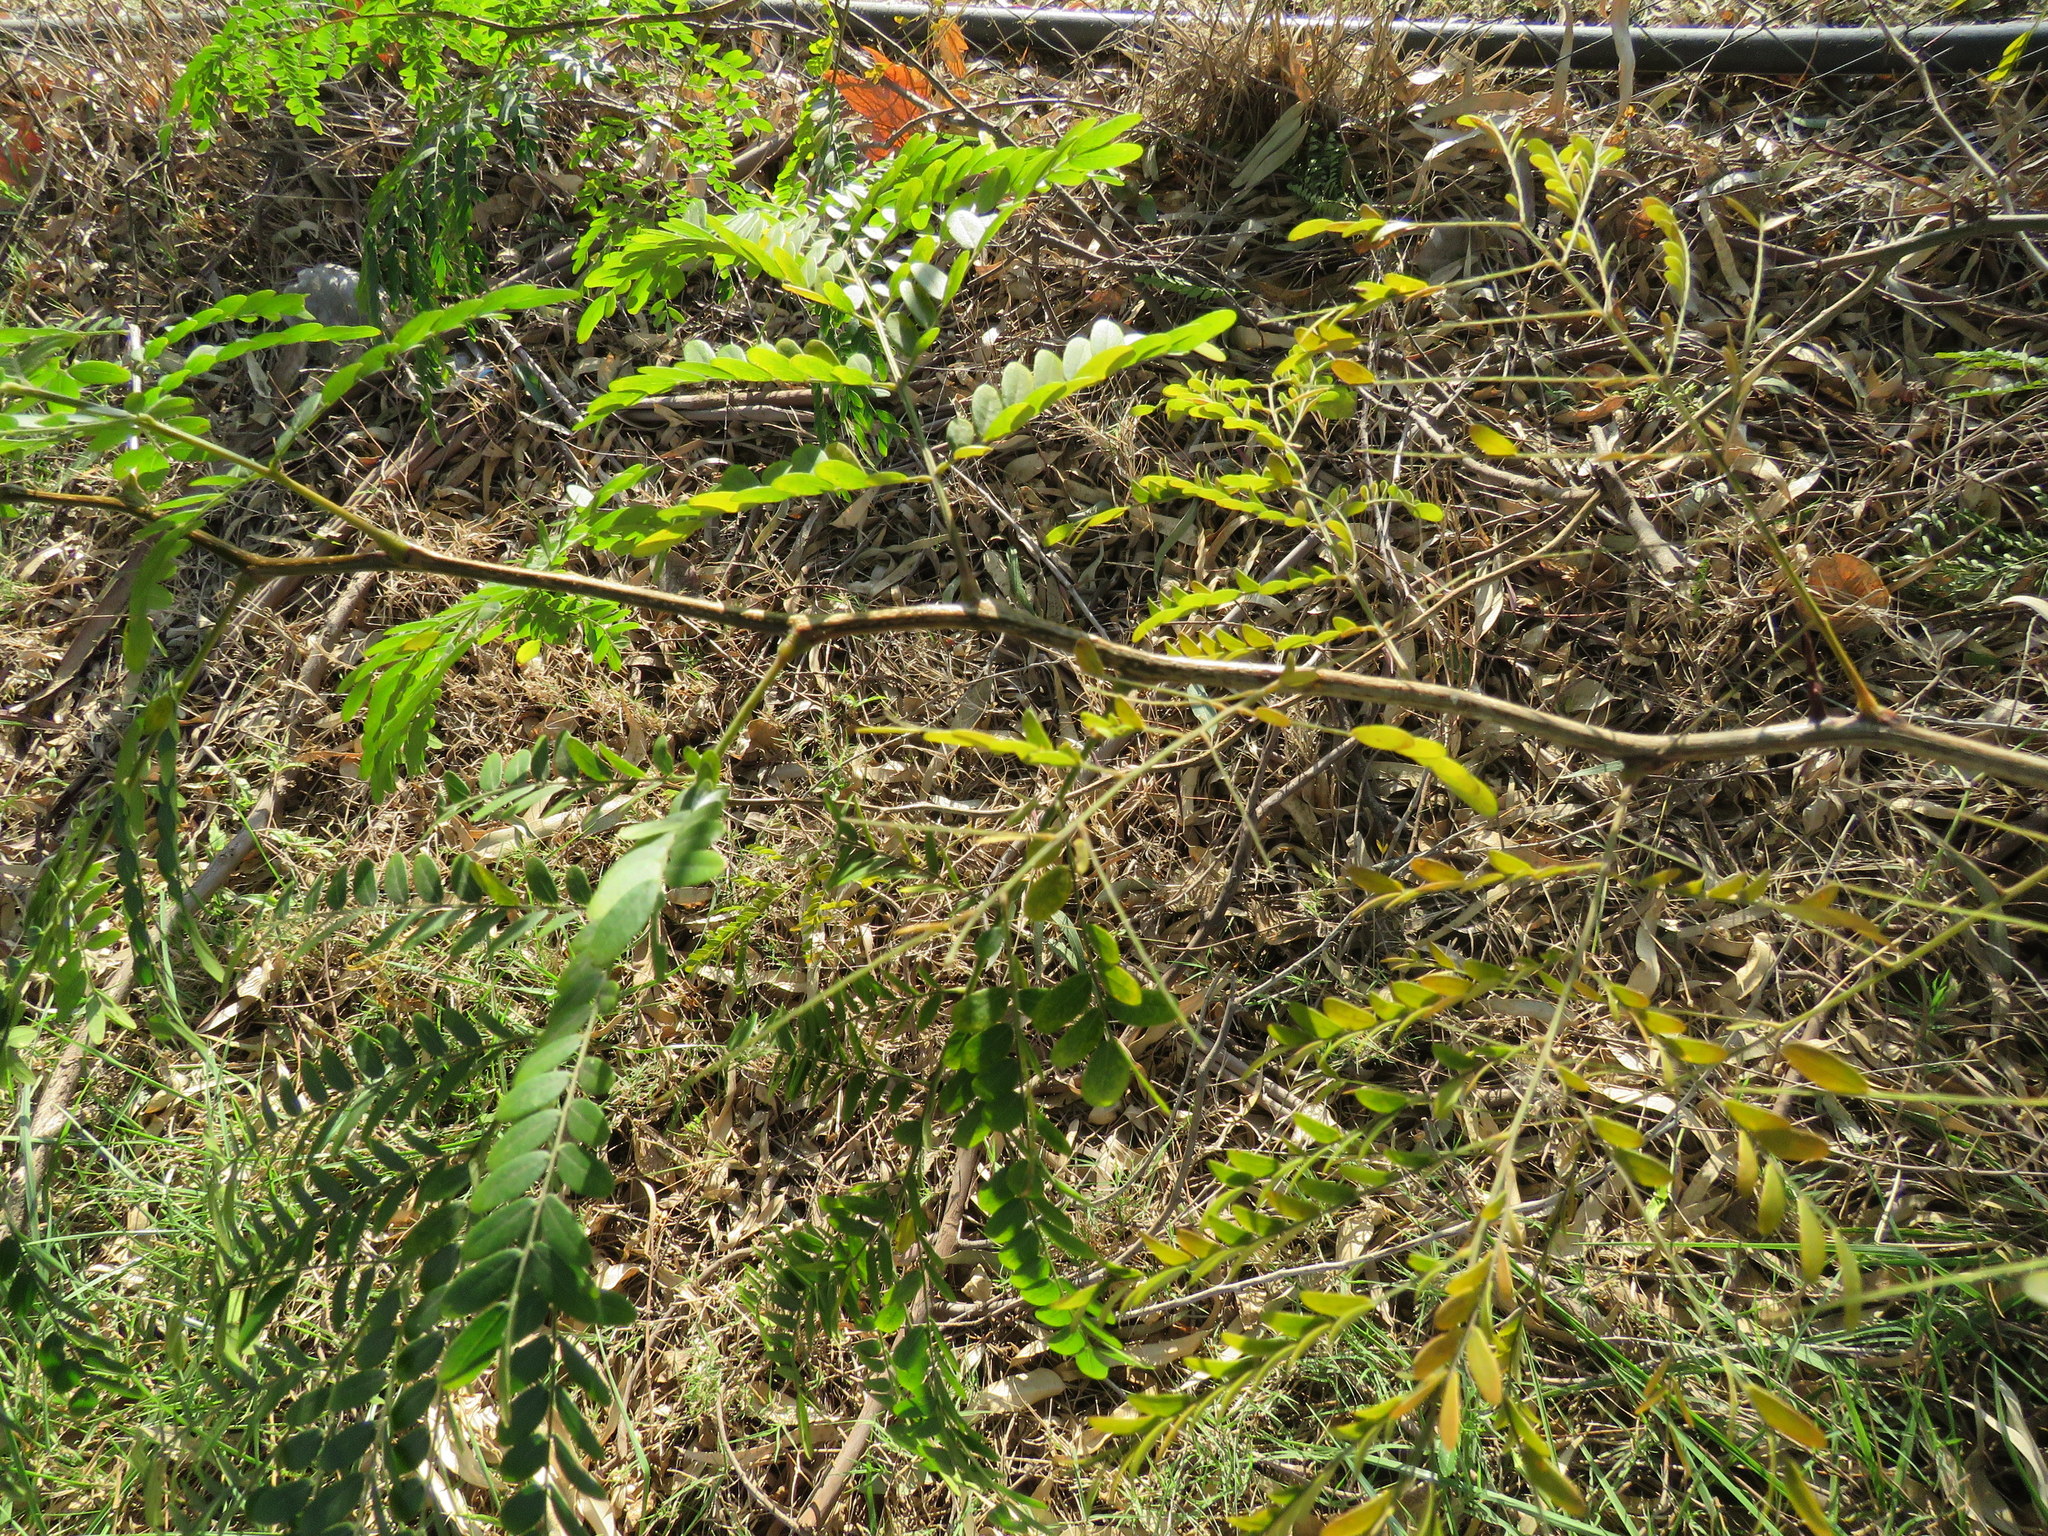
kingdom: Plantae
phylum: Tracheophyta
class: Magnoliopsida
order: Fabales
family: Fabaceae
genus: Gleditsia
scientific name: Gleditsia triacanthos
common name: Common honeylocust
